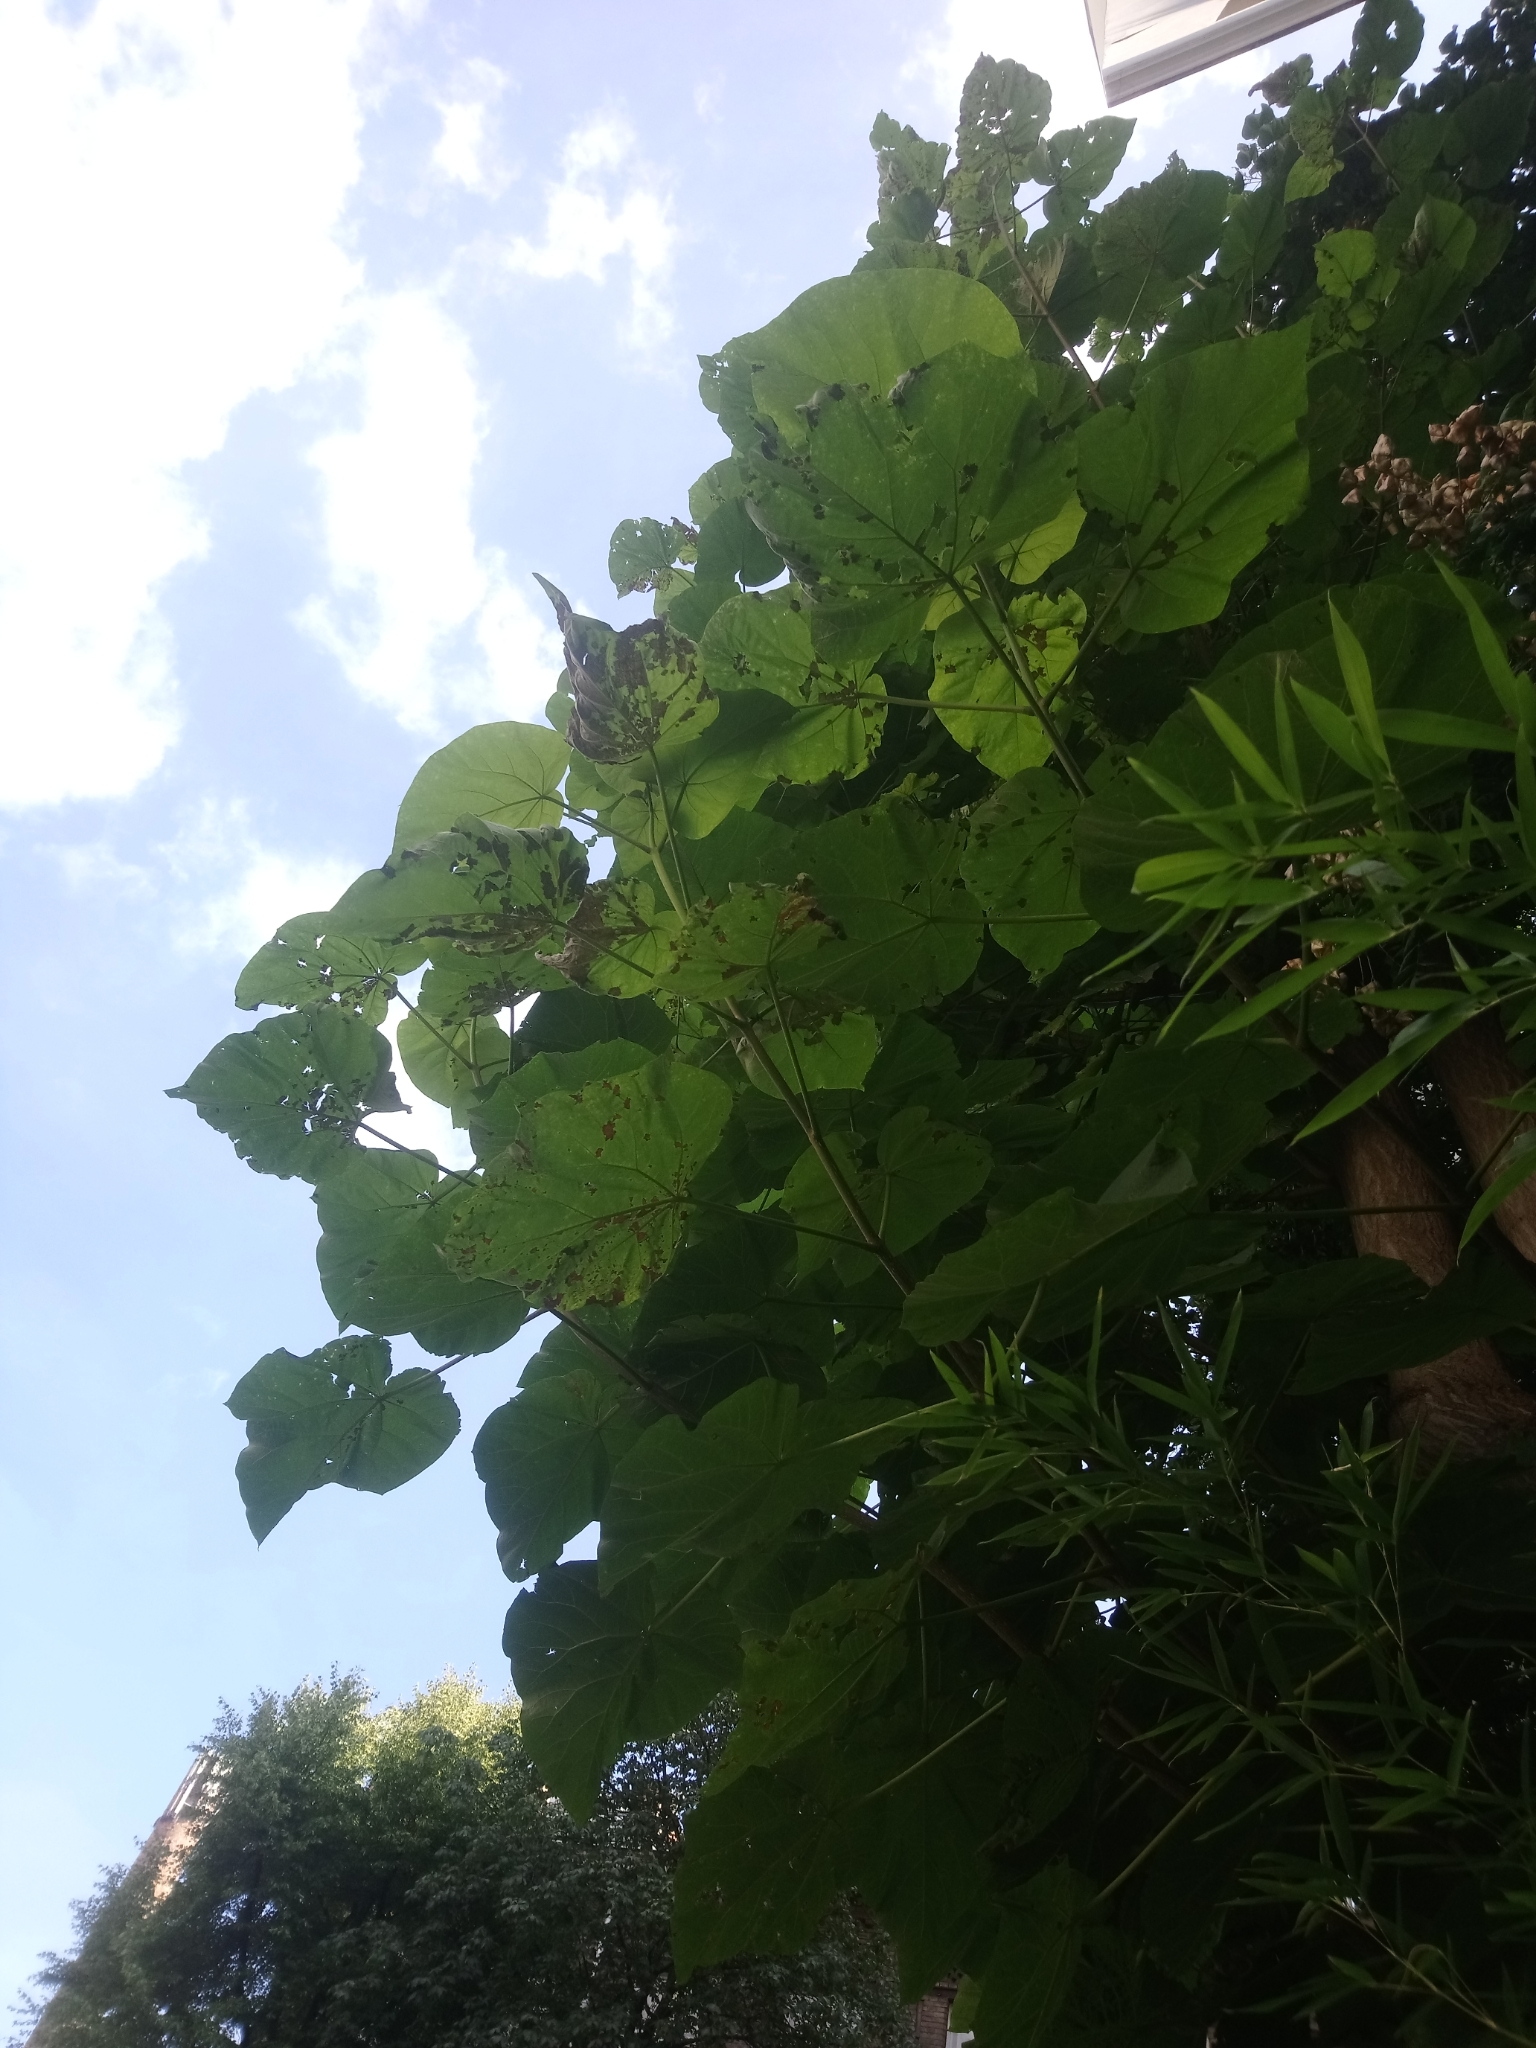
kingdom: Plantae
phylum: Tracheophyta
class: Magnoliopsida
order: Lamiales
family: Paulowniaceae
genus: Paulownia
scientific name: Paulownia tomentosa
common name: Foxglove-tree
